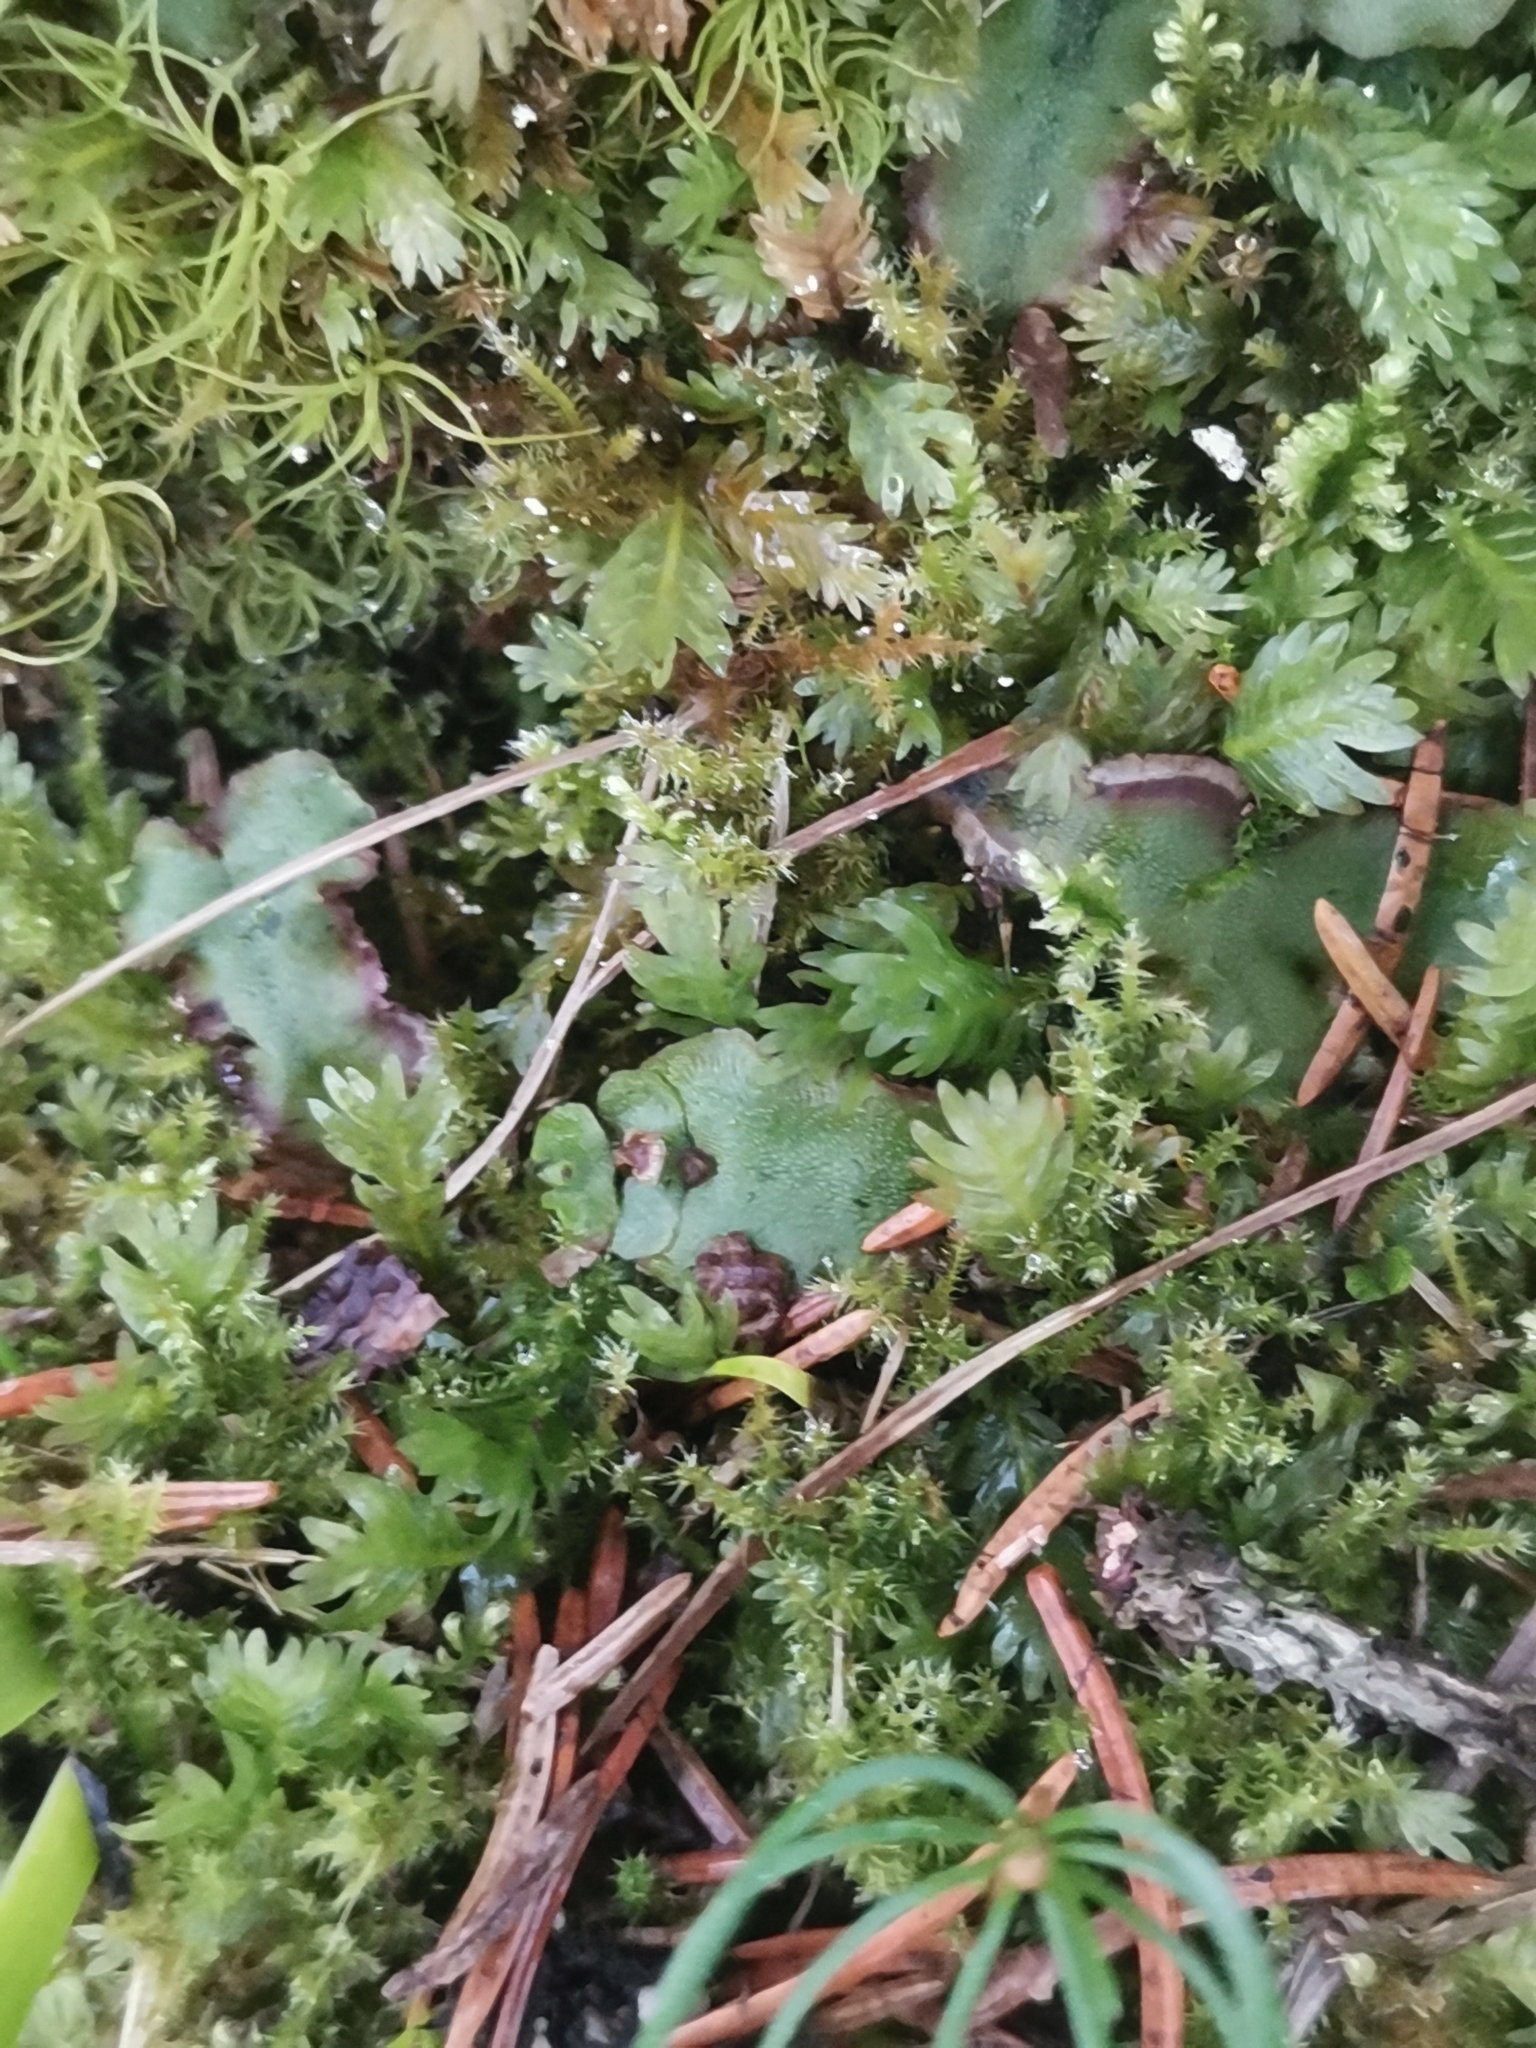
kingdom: Plantae
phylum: Marchantiophyta
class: Marchantiopsida
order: Marchantiales
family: Marchantiaceae
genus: Marchantia
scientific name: Marchantia quadrata
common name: Narrow mushroom-headed liverwort
